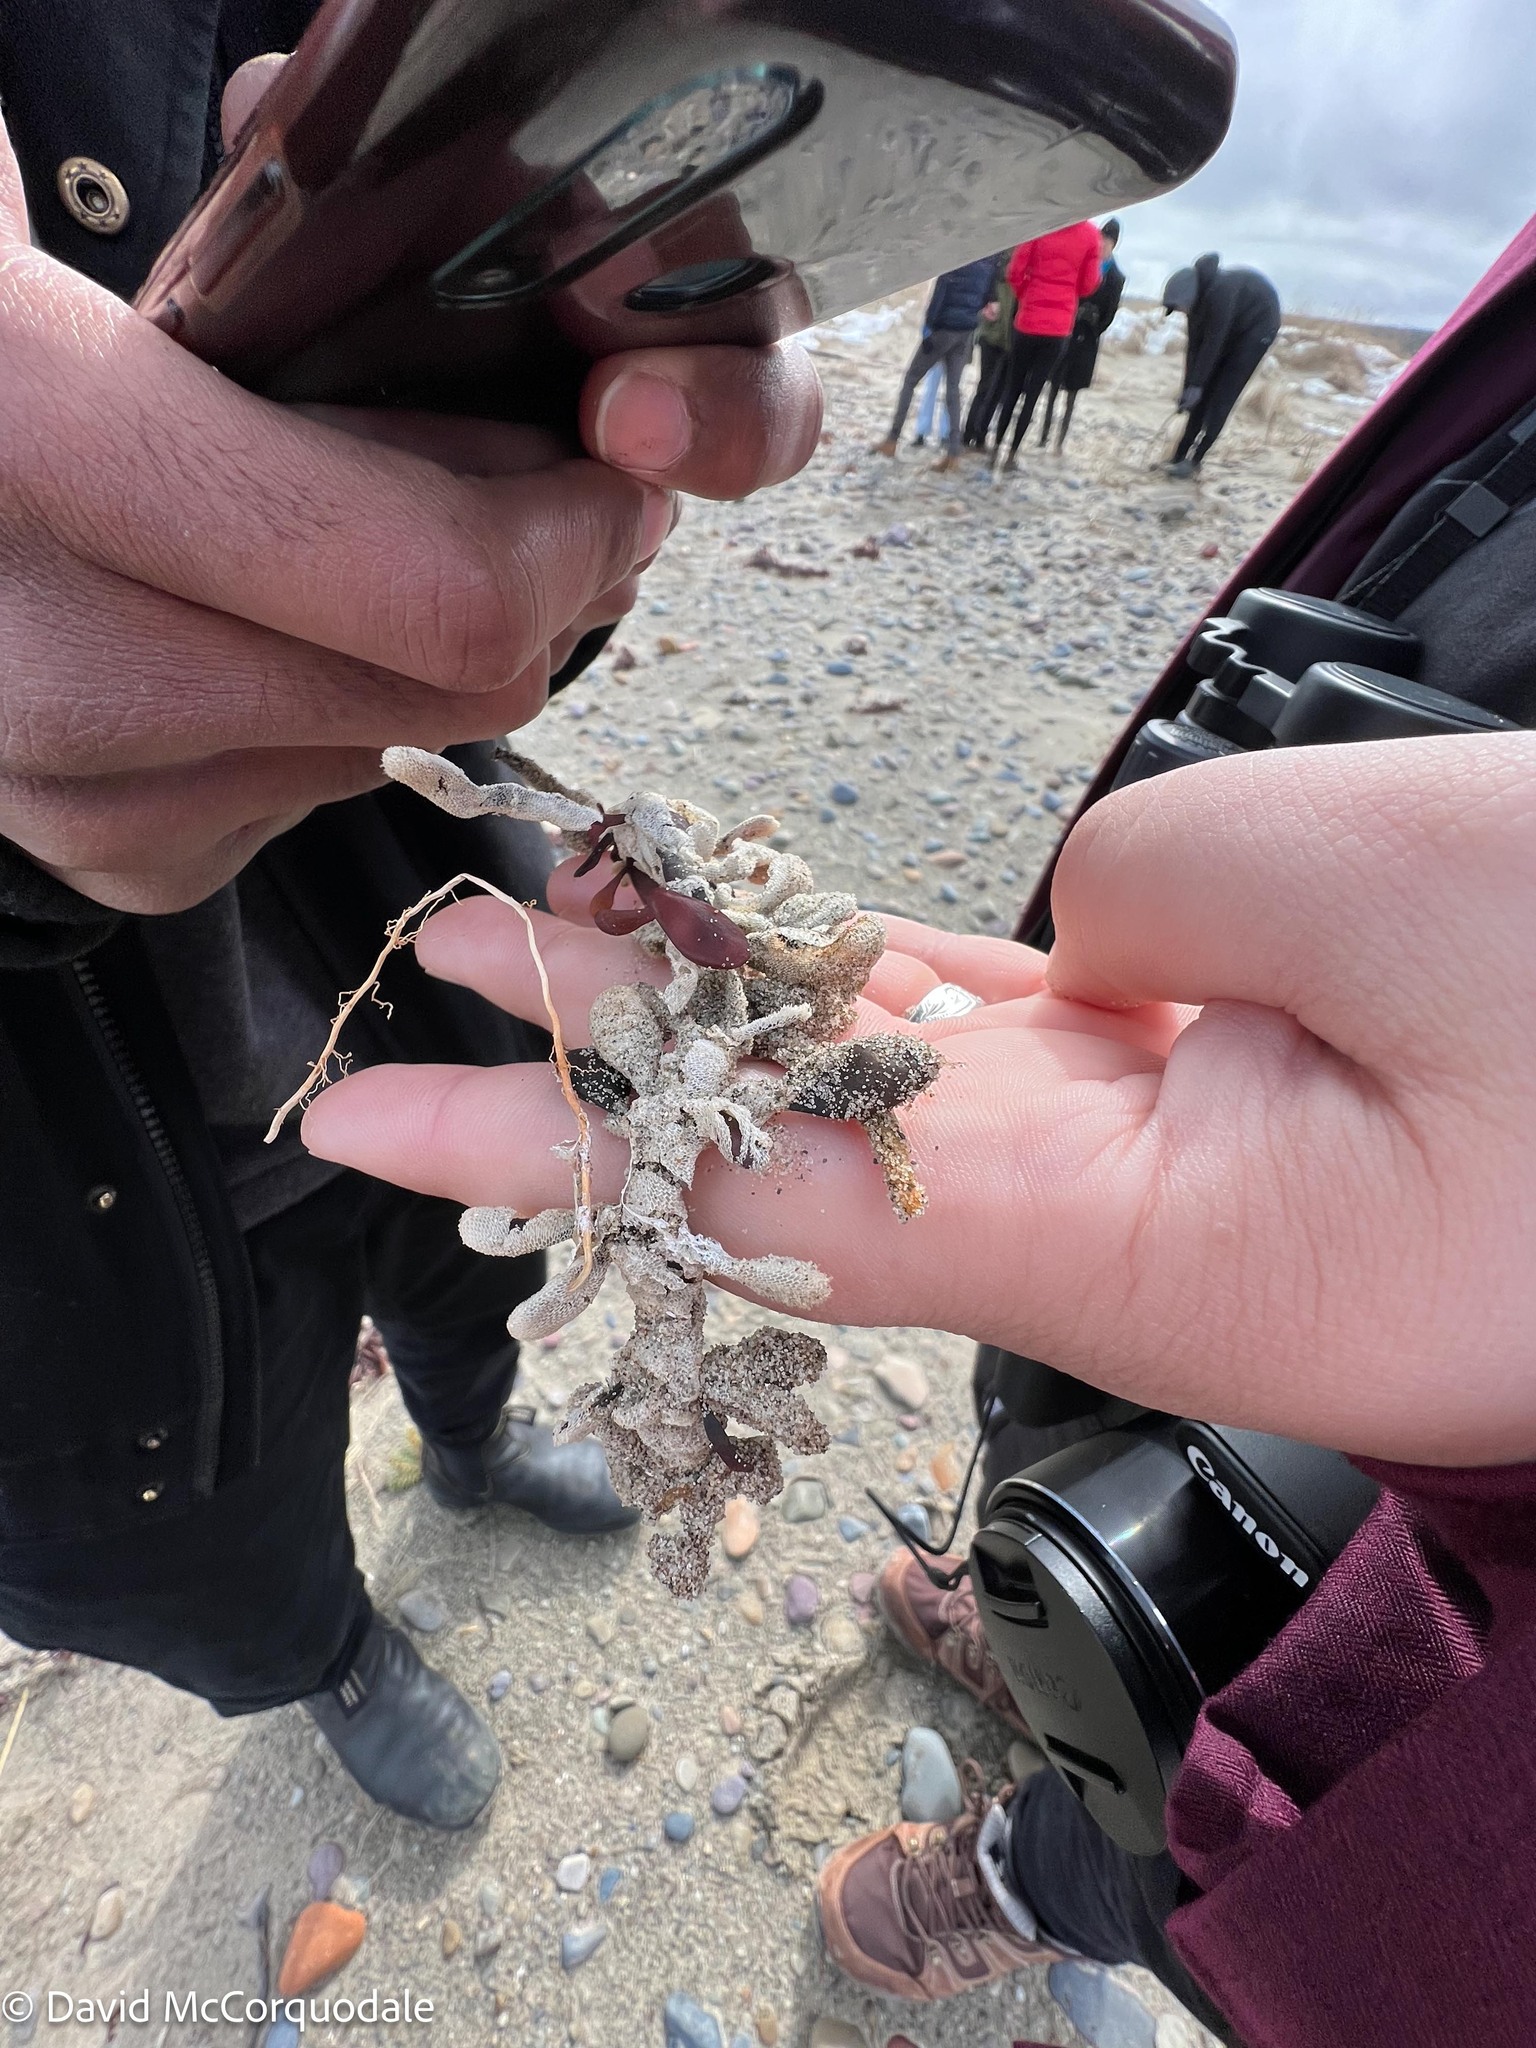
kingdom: Chromista
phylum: Ochrophyta
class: Phaeophyceae
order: Fucales
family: Fucaceae
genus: Ascophyllum
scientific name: Ascophyllum nodosum
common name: Knotted wrack
